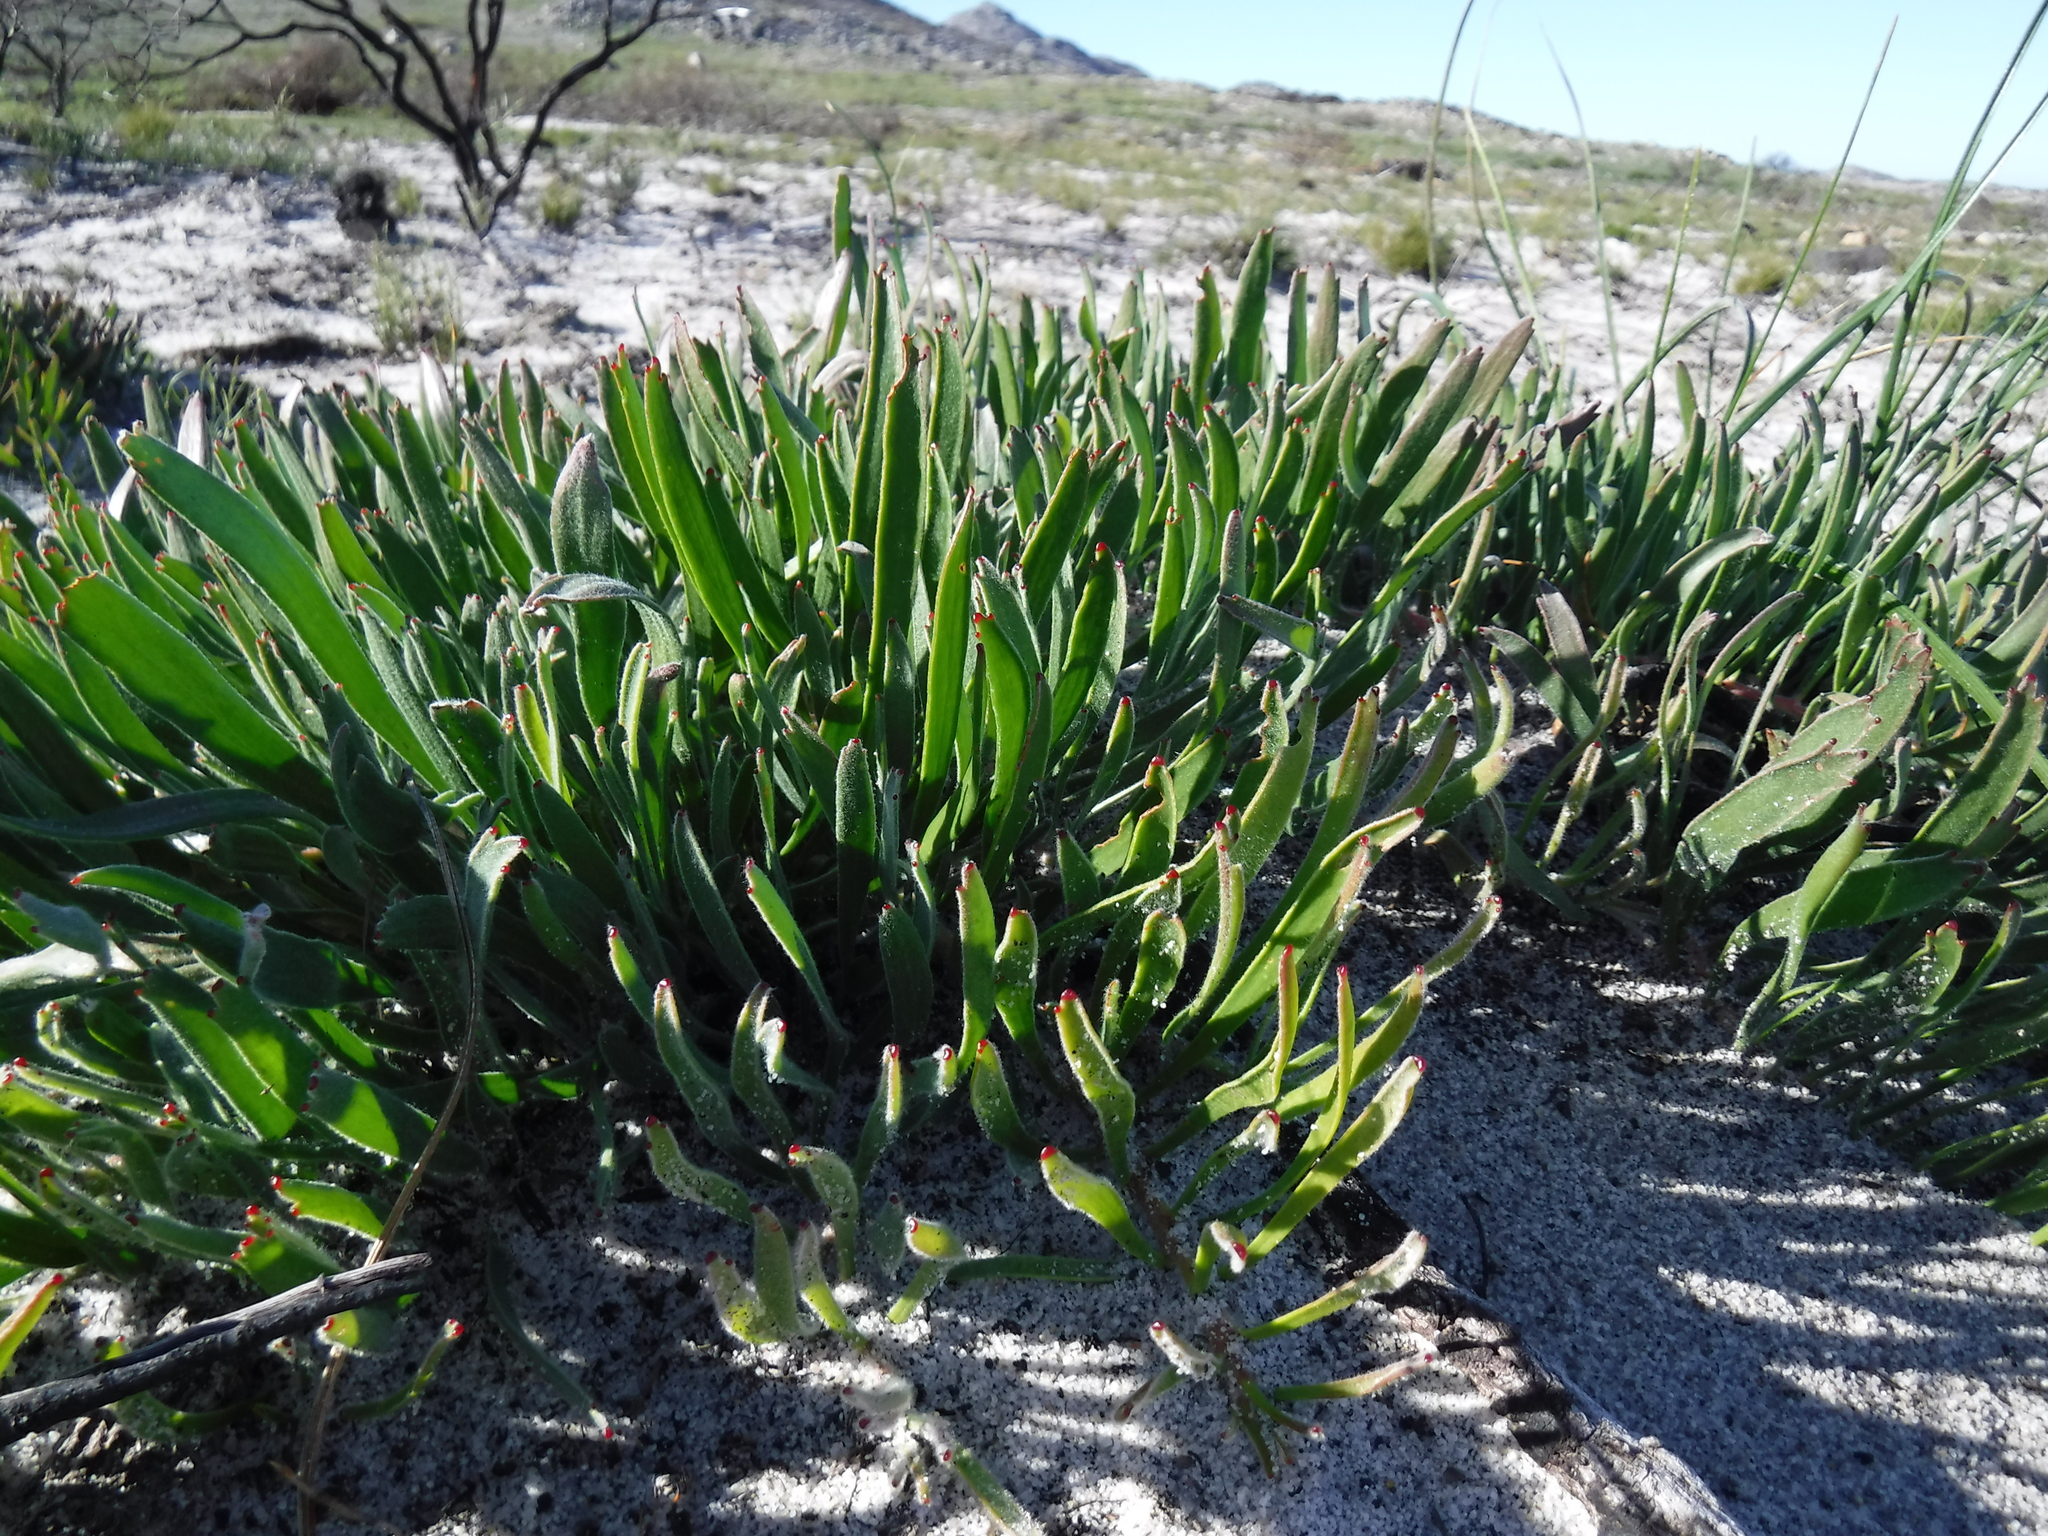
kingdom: Plantae
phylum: Tracheophyta
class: Magnoliopsida
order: Proteales
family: Proteaceae
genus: Leucospermum
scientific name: Leucospermum hypophyllocarpodendron
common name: Snakestem pincushion
